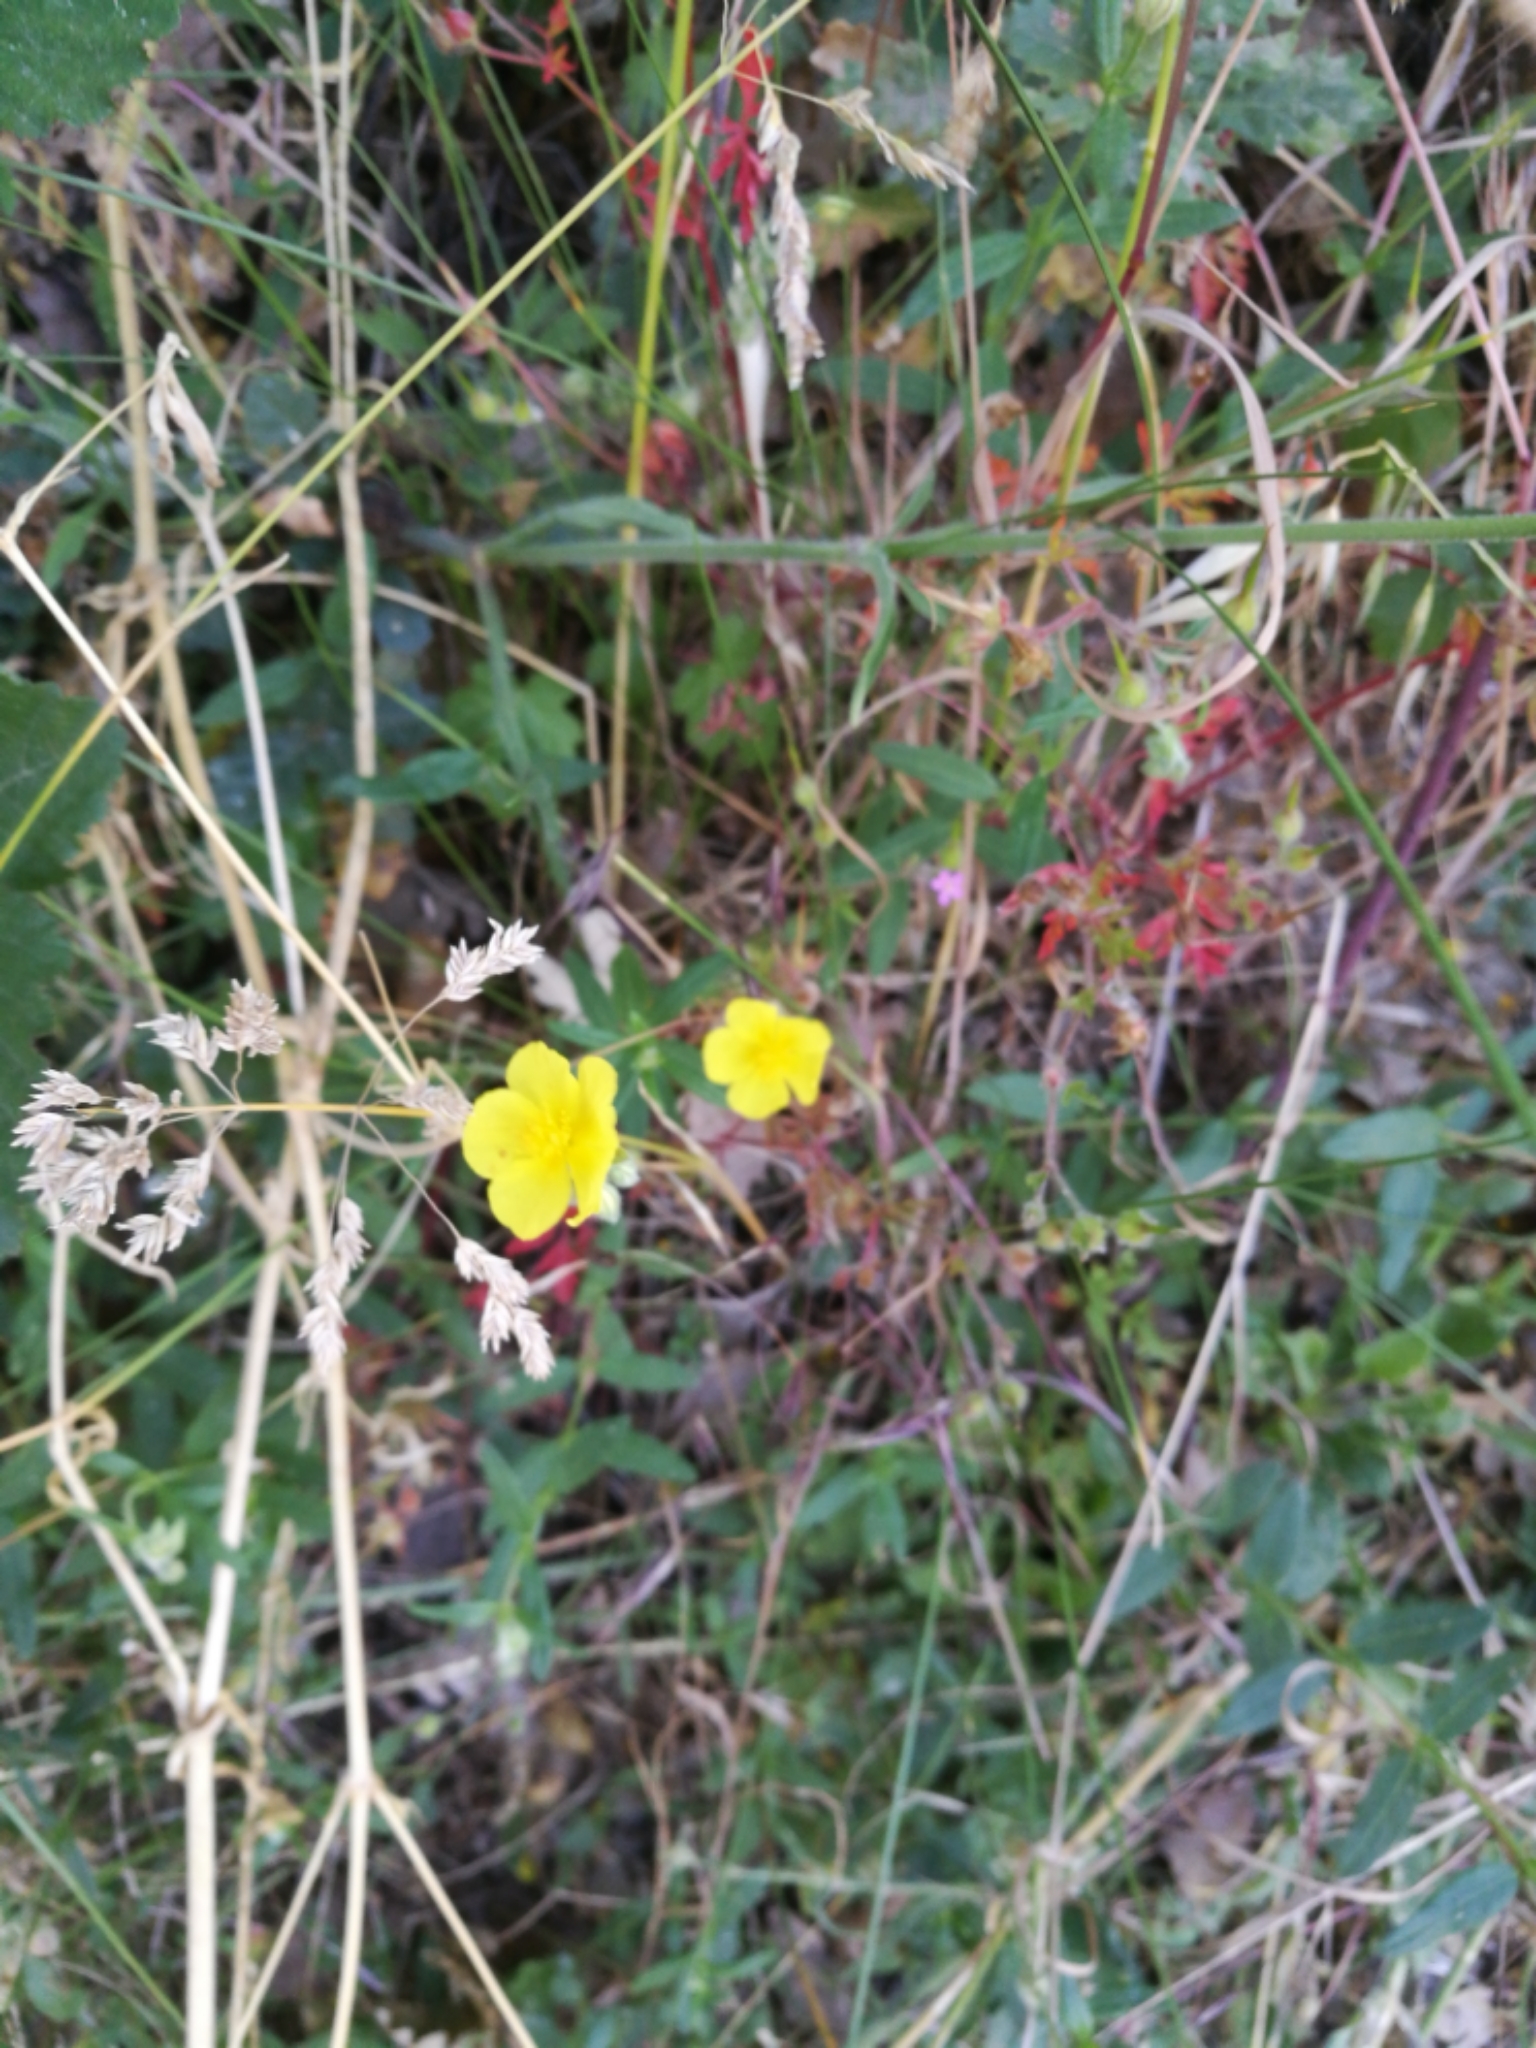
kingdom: Plantae
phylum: Tracheophyta
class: Magnoliopsida
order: Malvales
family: Cistaceae
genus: Helianthemum
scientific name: Helianthemum nummularium
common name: Common rock-rose
